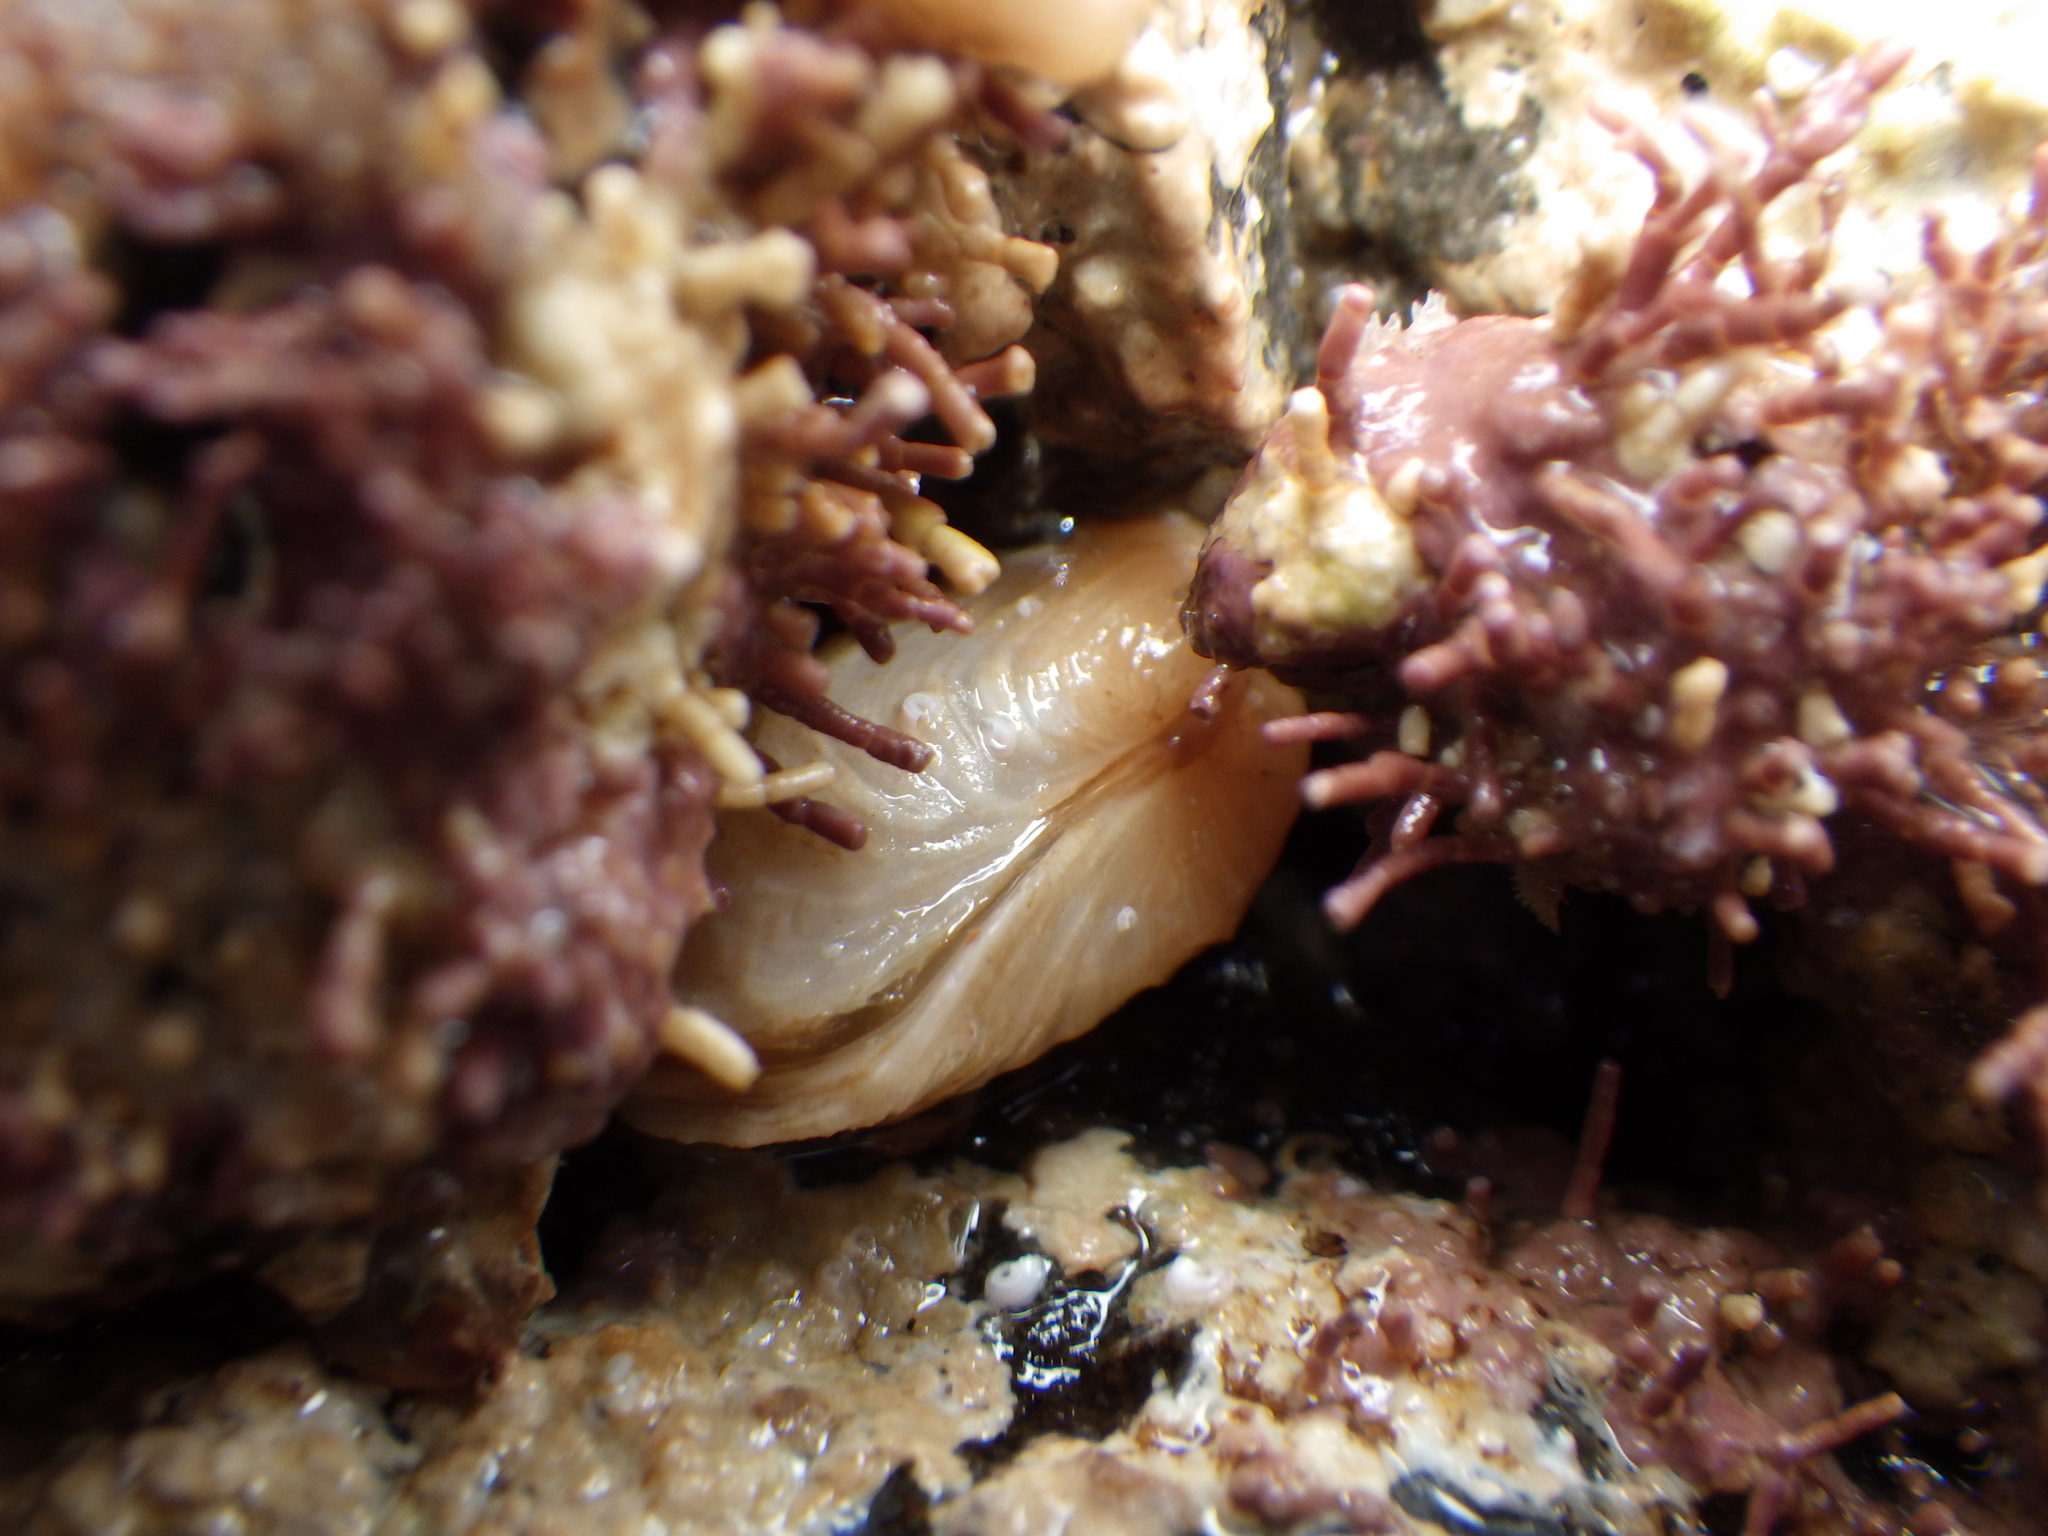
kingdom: Animalia
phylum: Mollusca
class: Bivalvia
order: Adapedonta
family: Hiatellidae
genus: Hiatella
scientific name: Hiatella arctica
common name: Arctic hiatella
